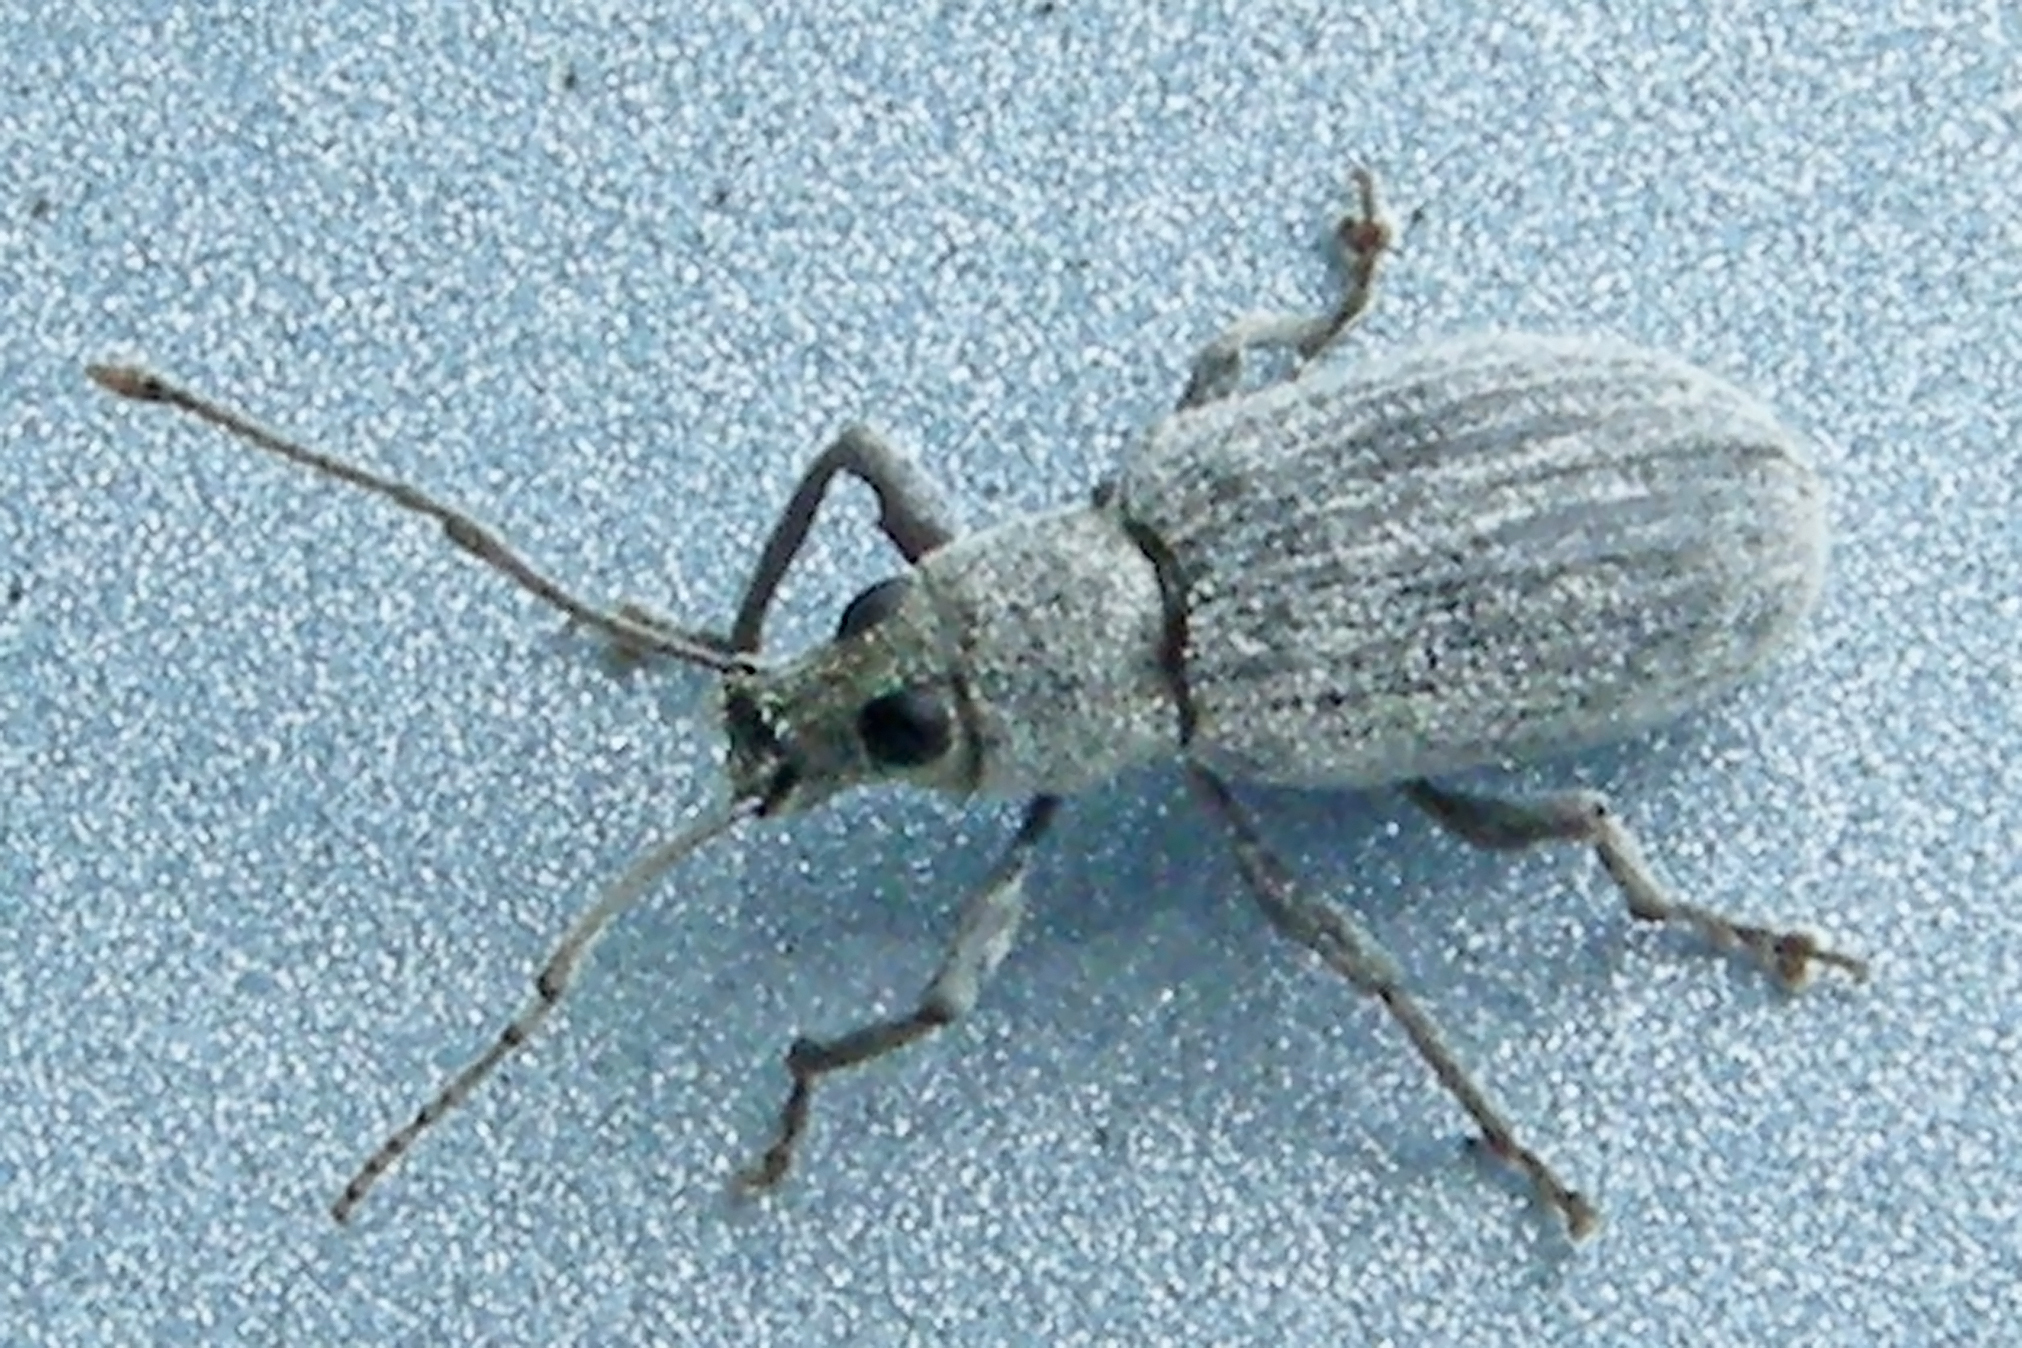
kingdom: Animalia
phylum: Arthropoda
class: Insecta
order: Coleoptera
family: Curculionidae
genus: Cyrtepistomus
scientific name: Cyrtepistomus castaneus
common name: Weevil
